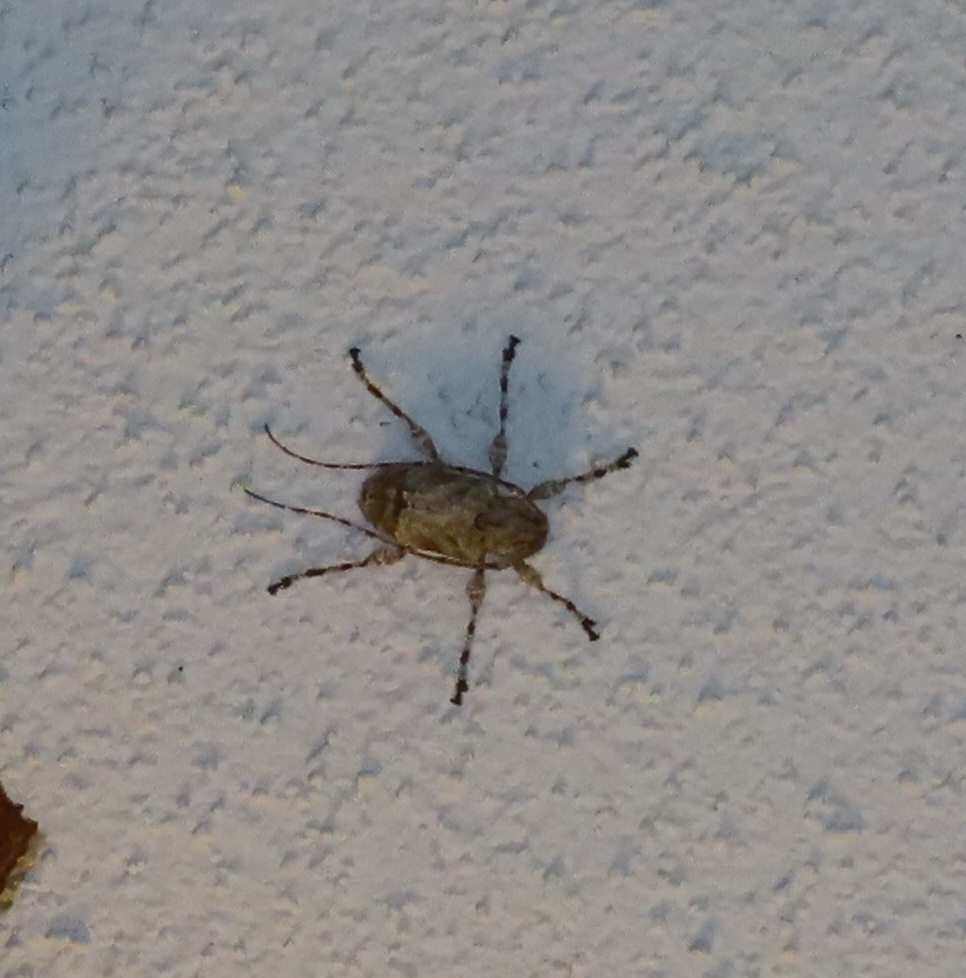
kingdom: Animalia
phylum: Arthropoda
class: Insecta
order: Coleoptera
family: Cerambycidae
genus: Leptostylopsis
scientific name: Leptostylopsis argentatus
